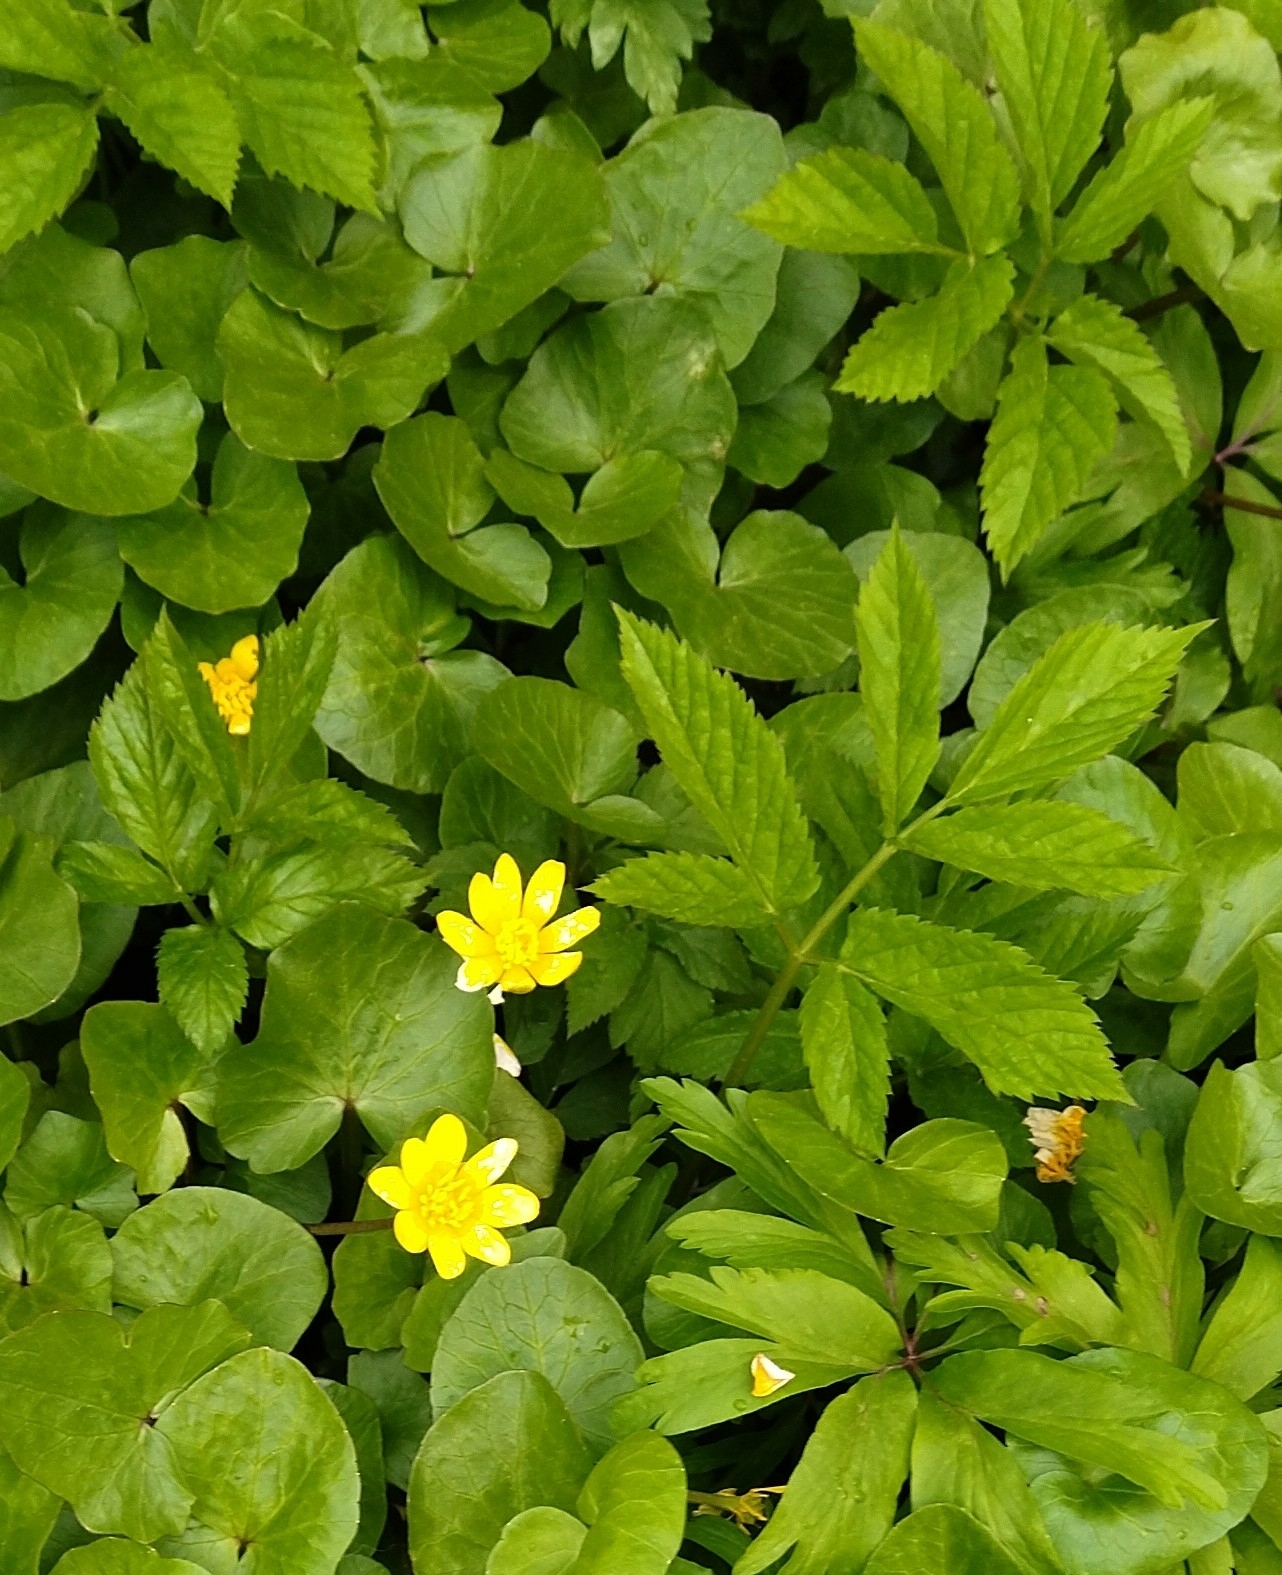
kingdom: Plantae
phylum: Tracheophyta
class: Magnoliopsida
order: Ranunculales
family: Ranunculaceae
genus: Ficaria
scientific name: Ficaria verna
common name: Lesser celandine
